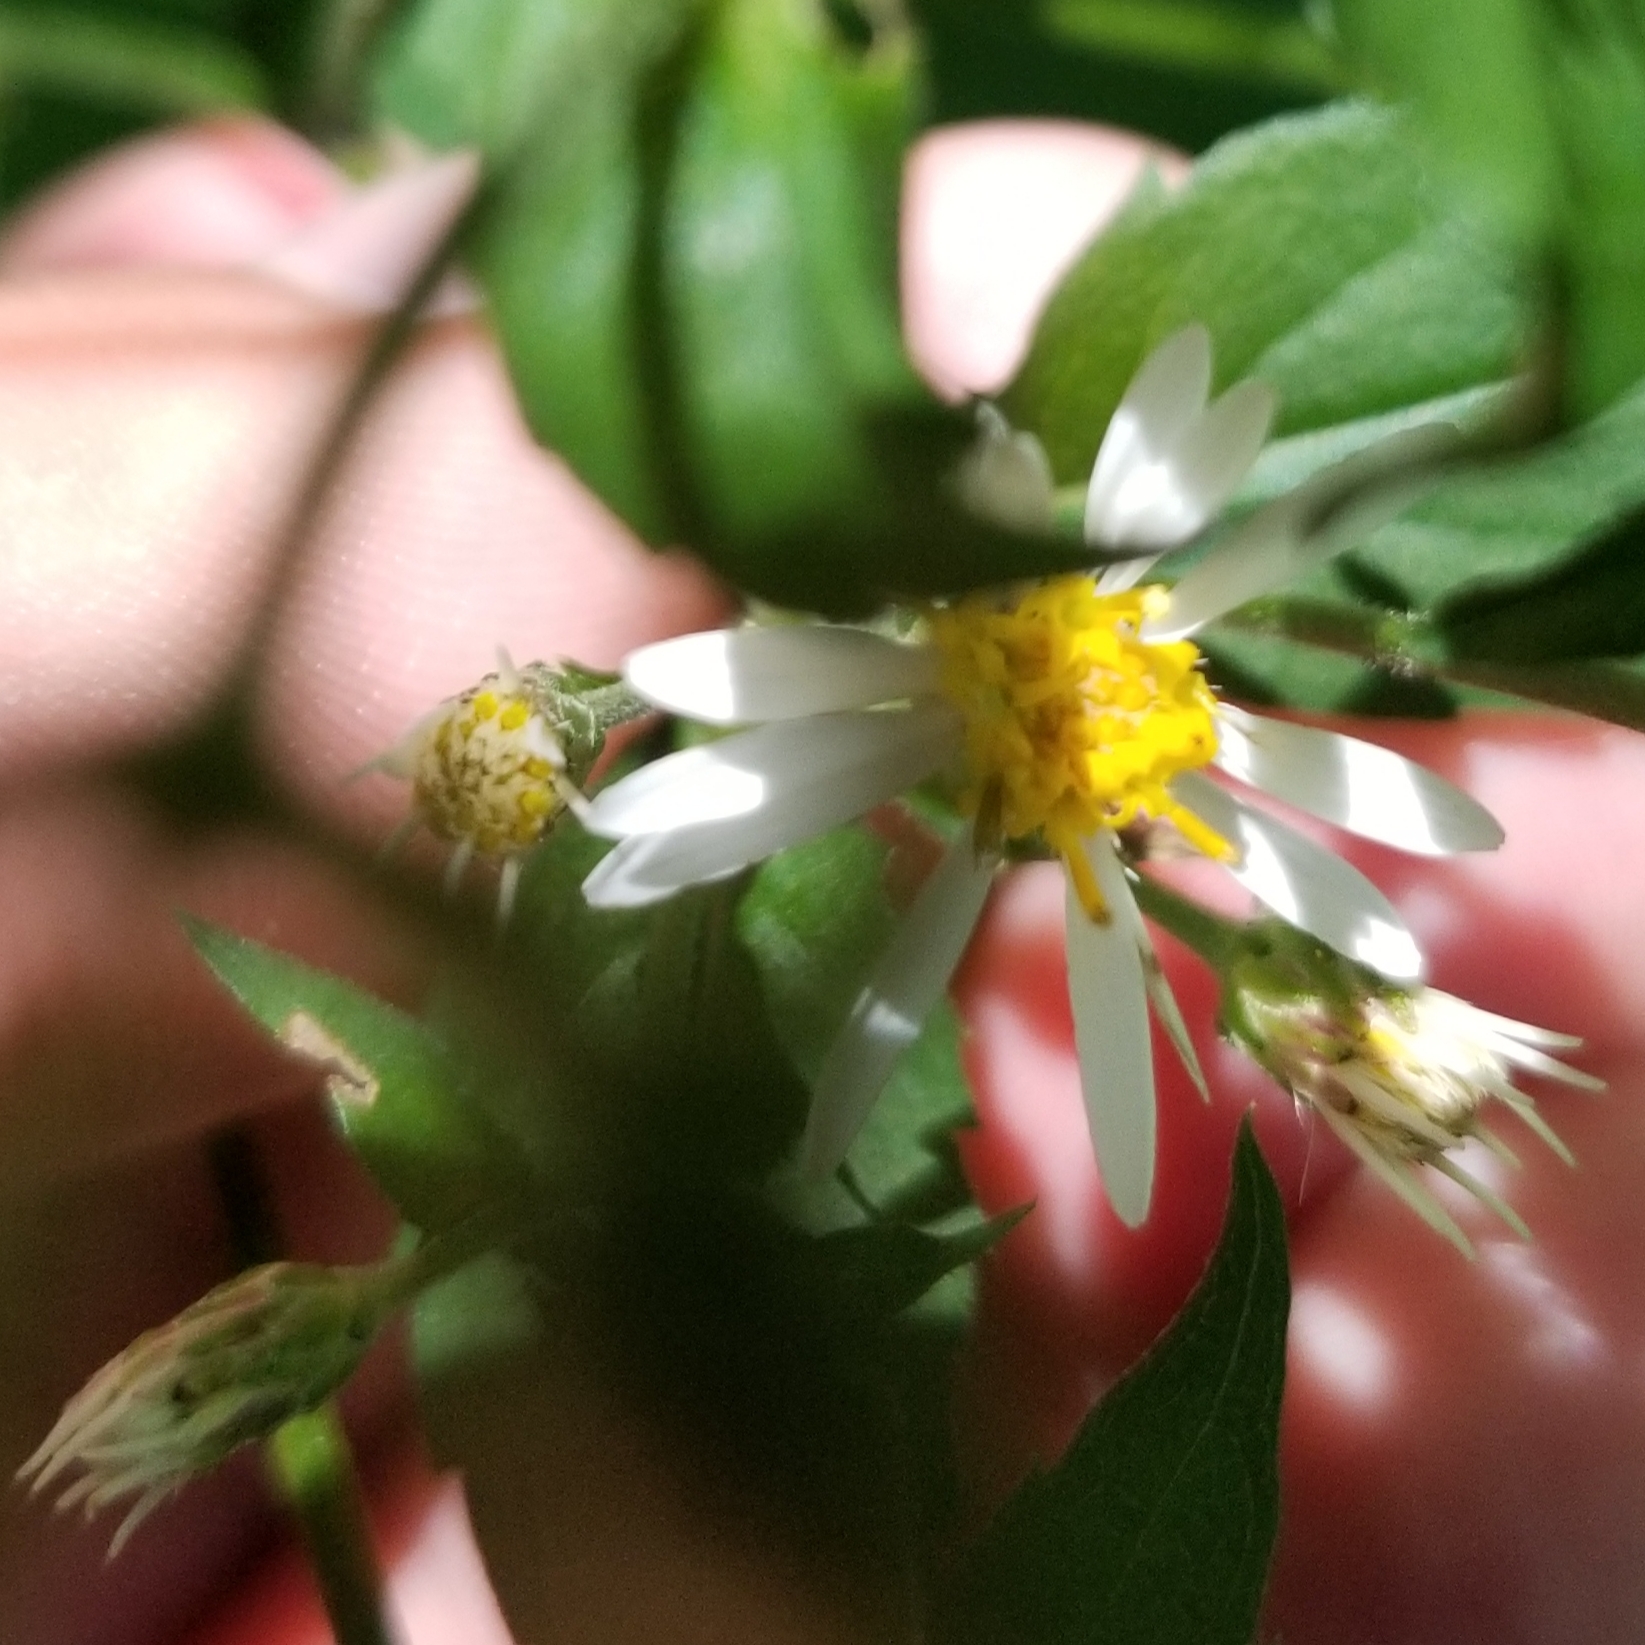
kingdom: Plantae
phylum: Tracheophyta
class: Magnoliopsida
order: Asterales
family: Asteraceae
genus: Eurybia
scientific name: Eurybia divaricata
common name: White wood aster
